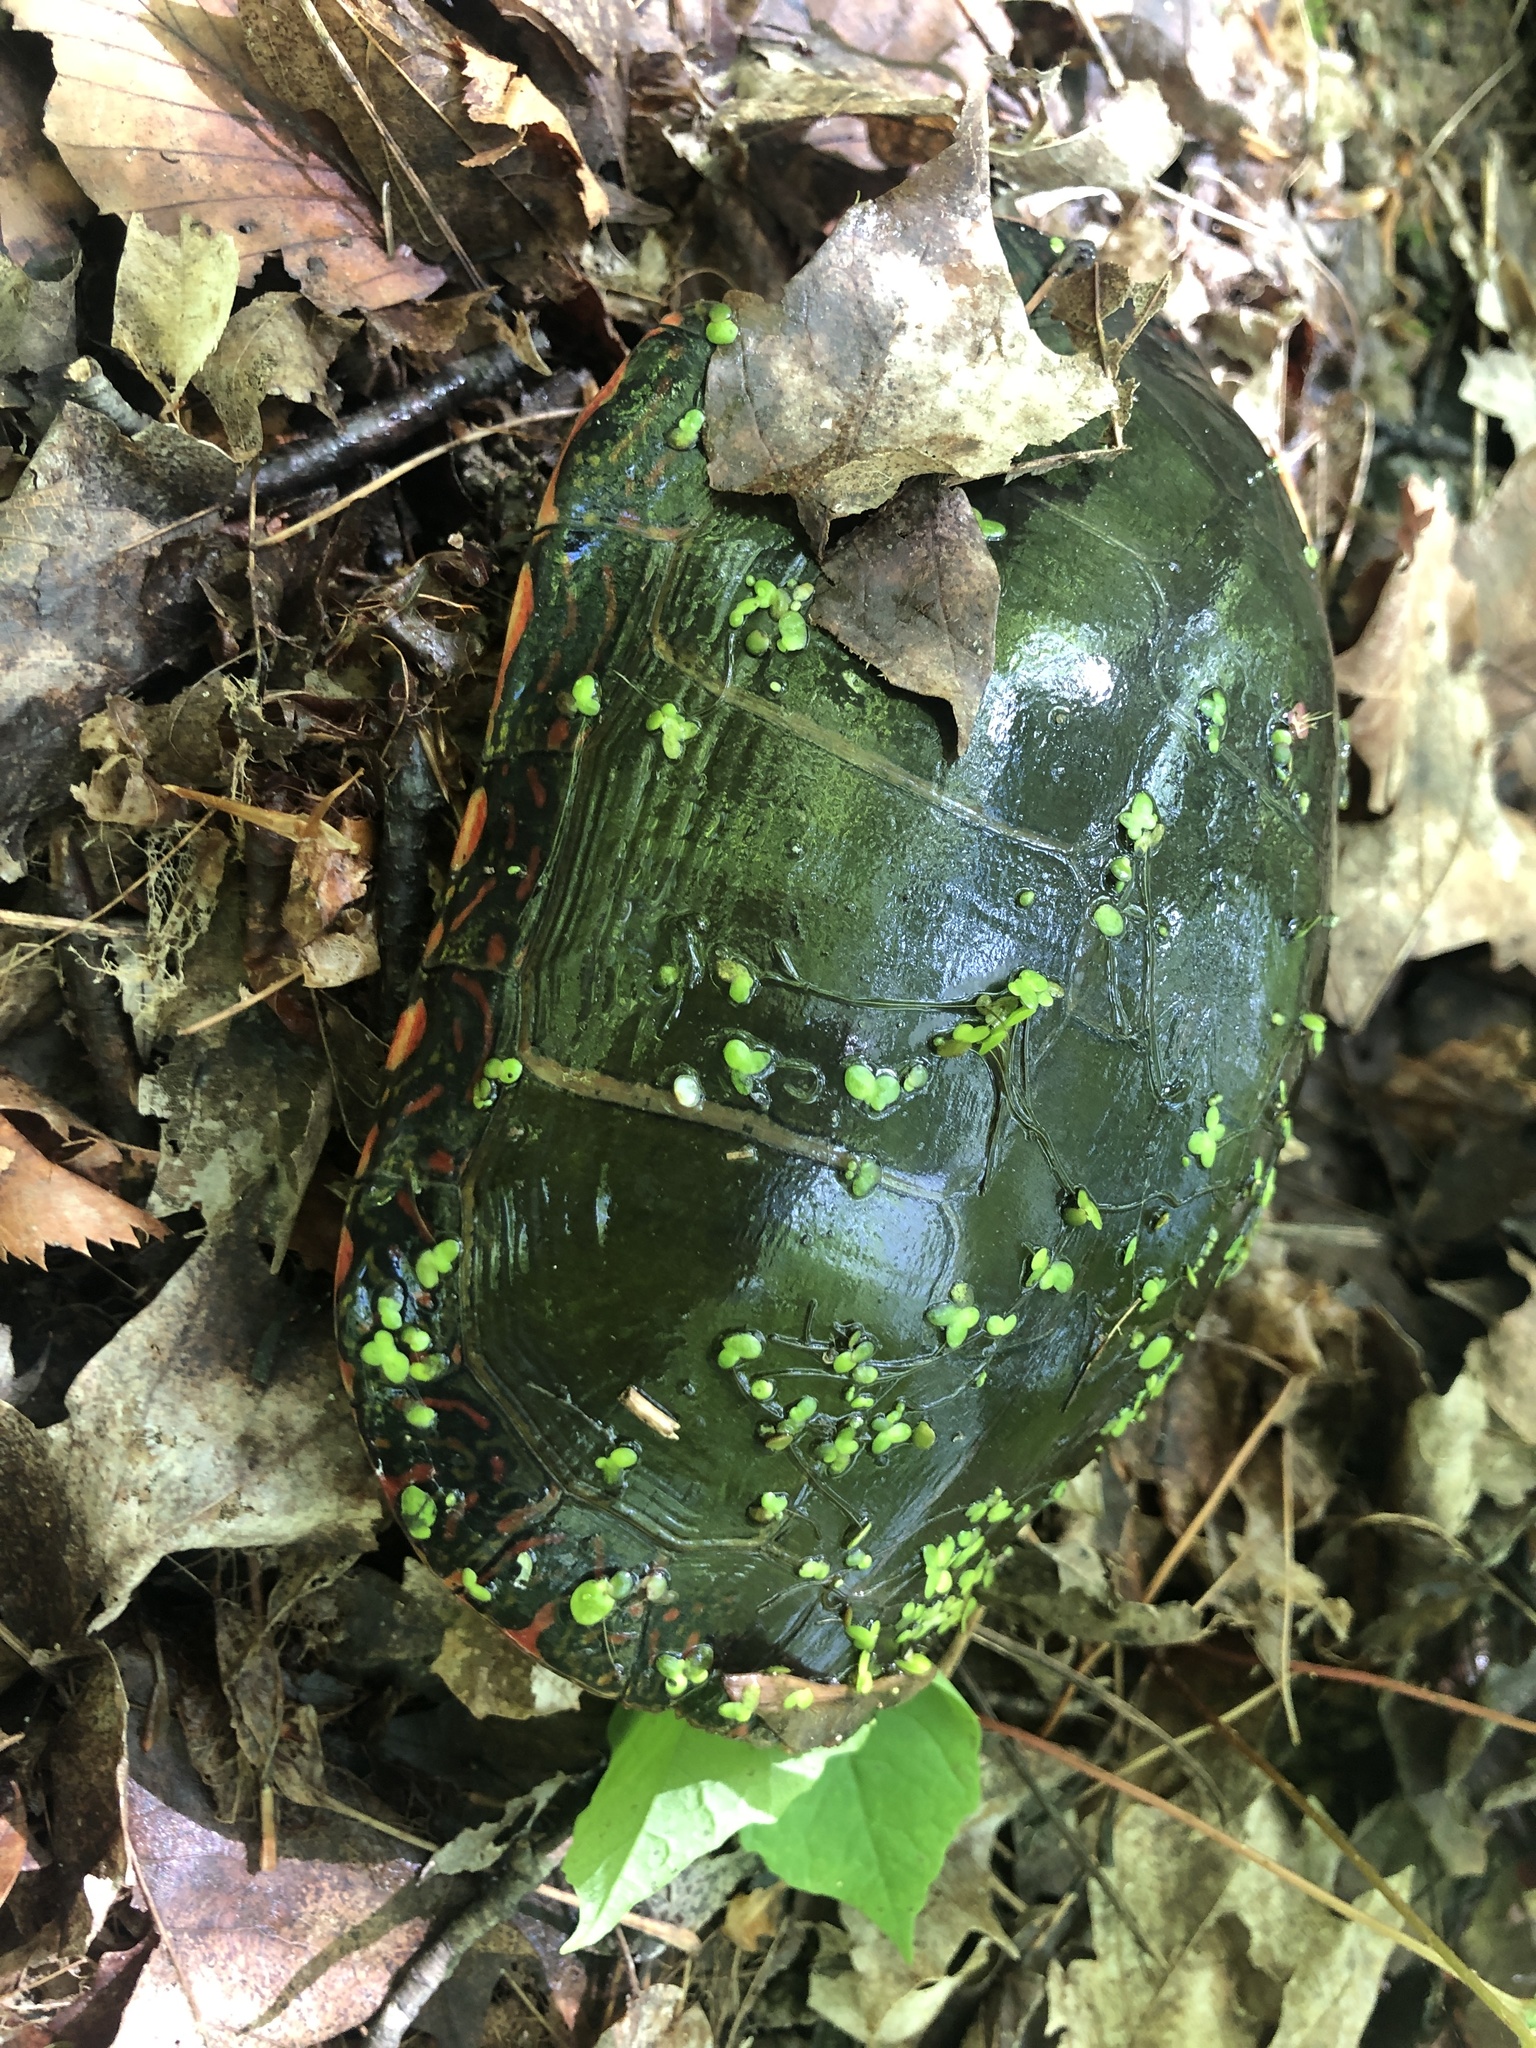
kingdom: Animalia
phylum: Chordata
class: Testudines
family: Emydidae
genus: Chrysemys
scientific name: Chrysemys picta
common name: Painted turtle
